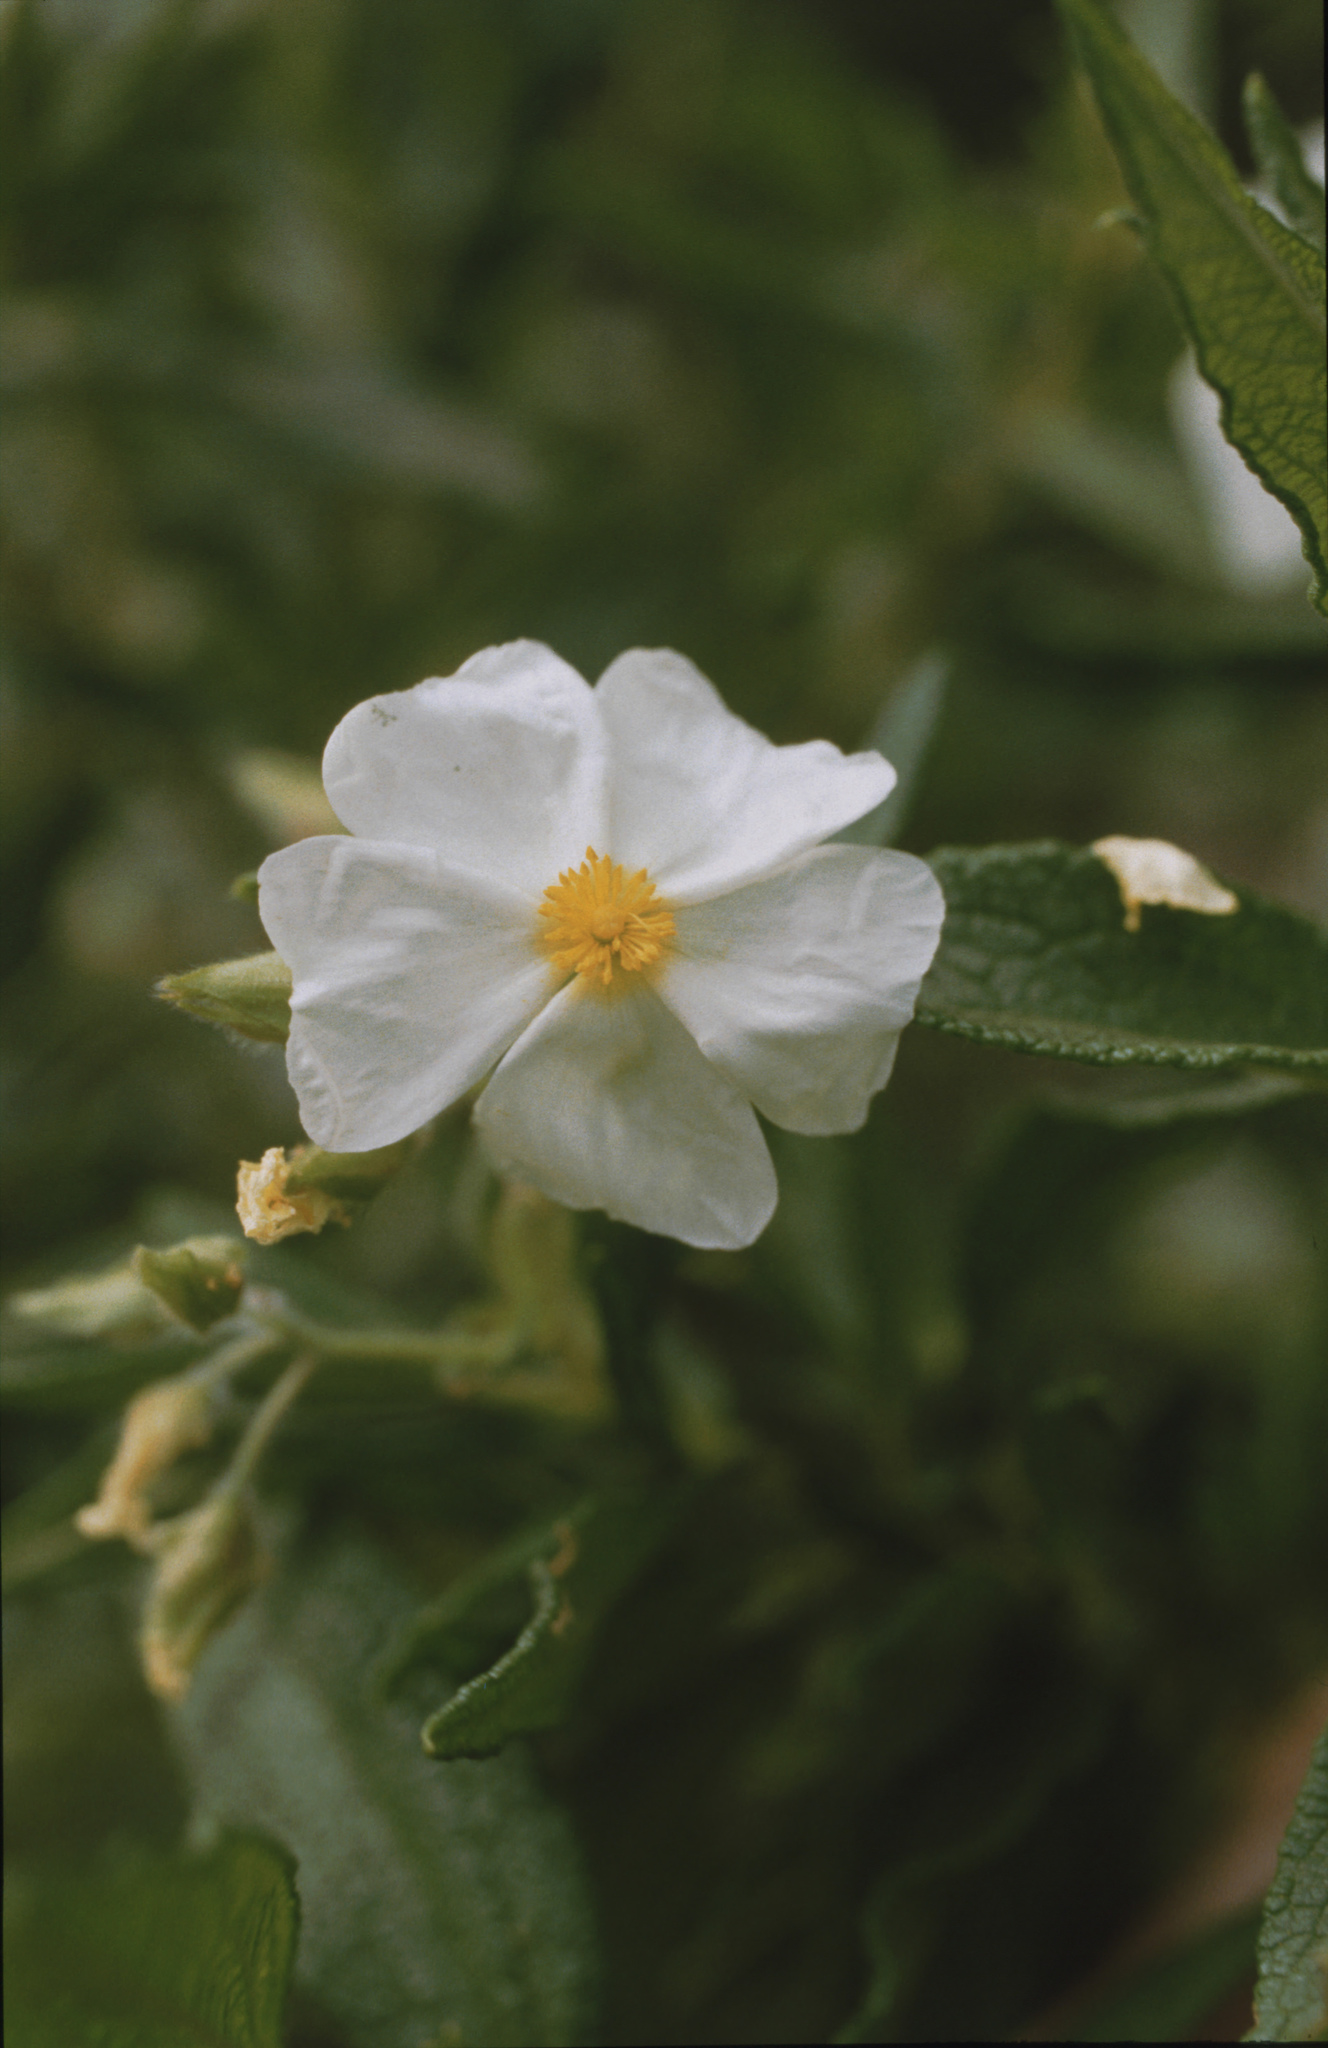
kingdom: Plantae
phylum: Tracheophyta
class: Magnoliopsida
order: Malvales
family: Cistaceae
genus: Cistus
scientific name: Cistus monspeliensis
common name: Montpelier cistus
